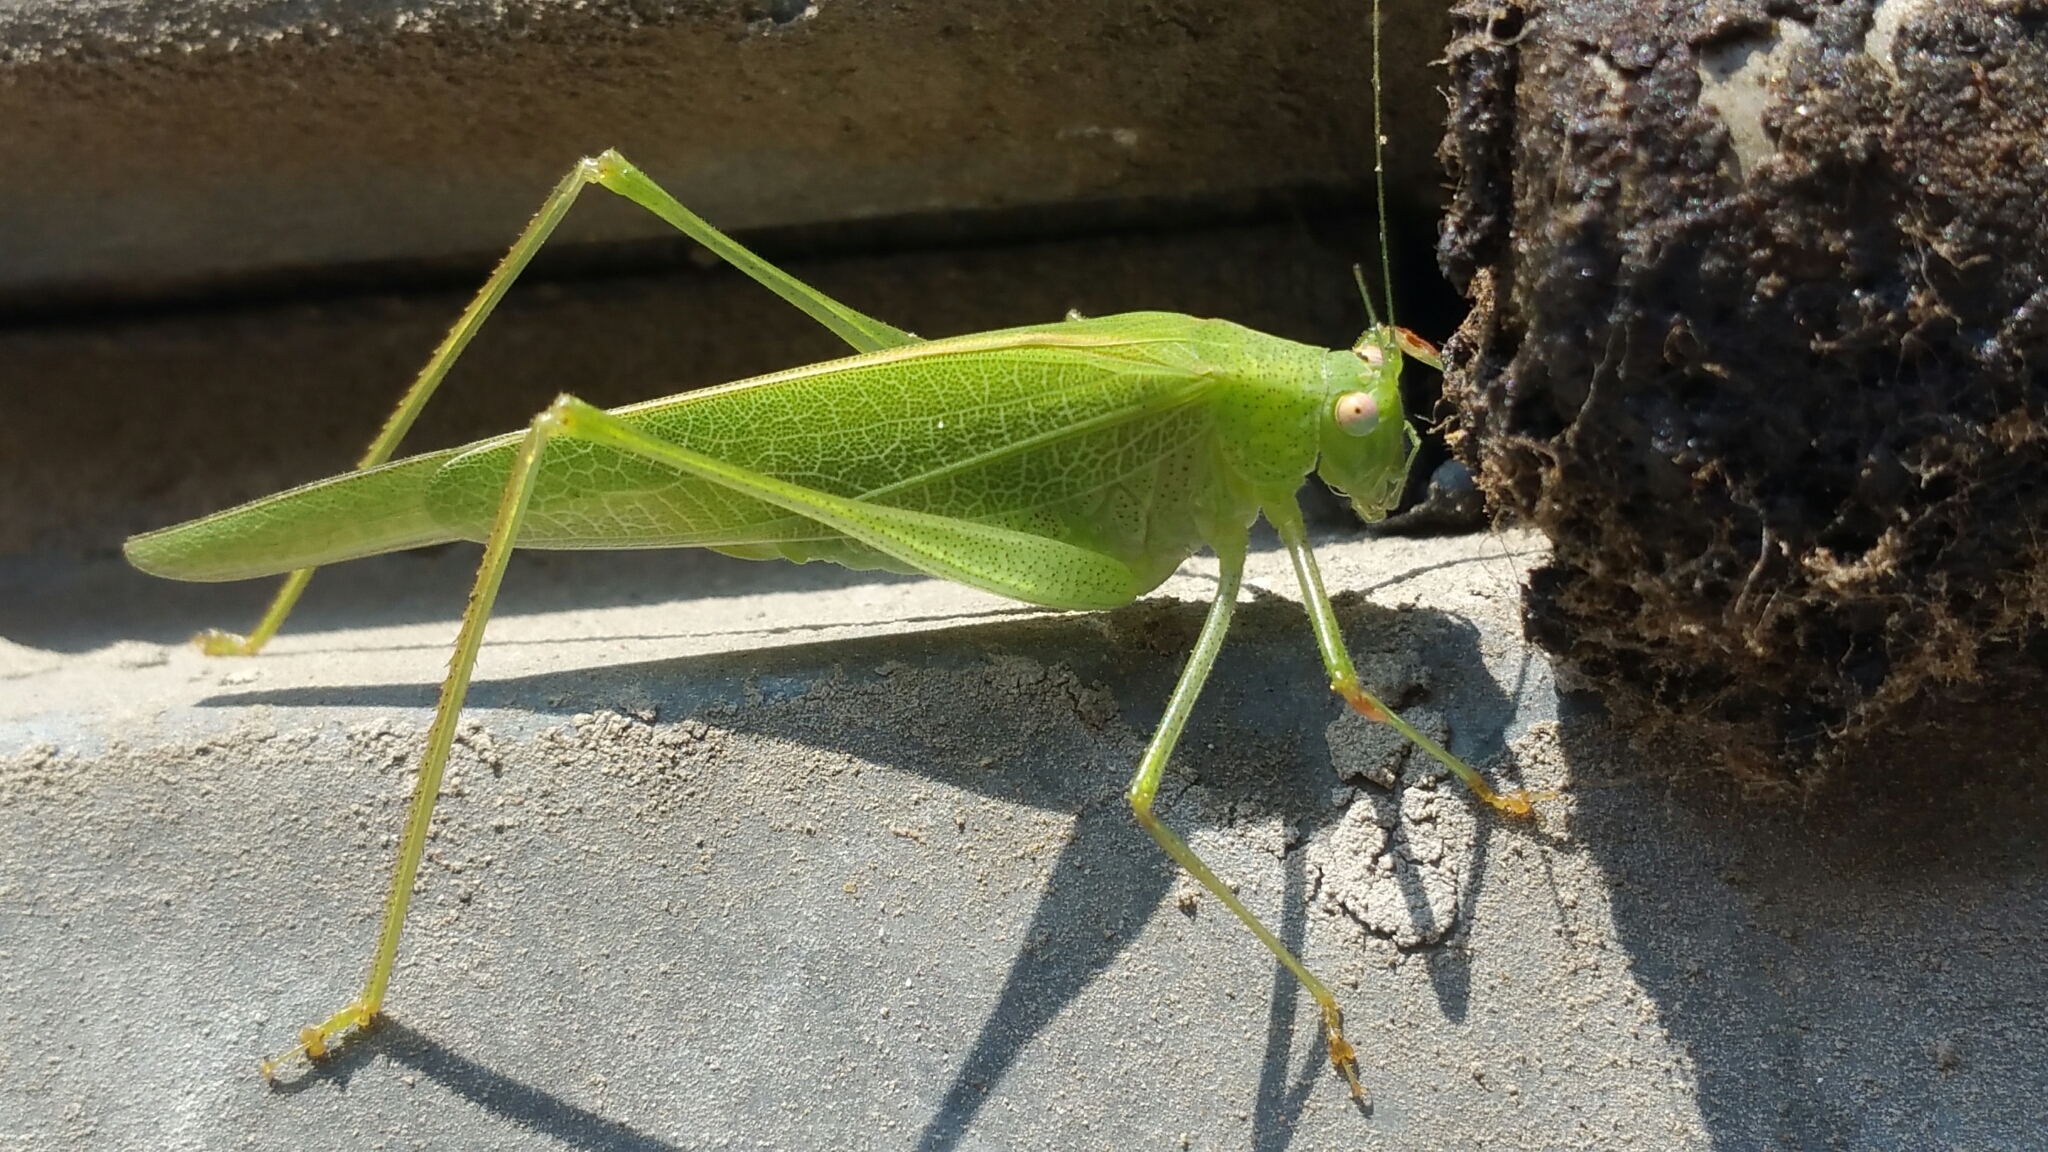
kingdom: Animalia
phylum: Arthropoda
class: Insecta
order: Orthoptera
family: Tettigoniidae
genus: Phaneroptera
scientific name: Phaneroptera nana
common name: Southern sickle bush-cricket
